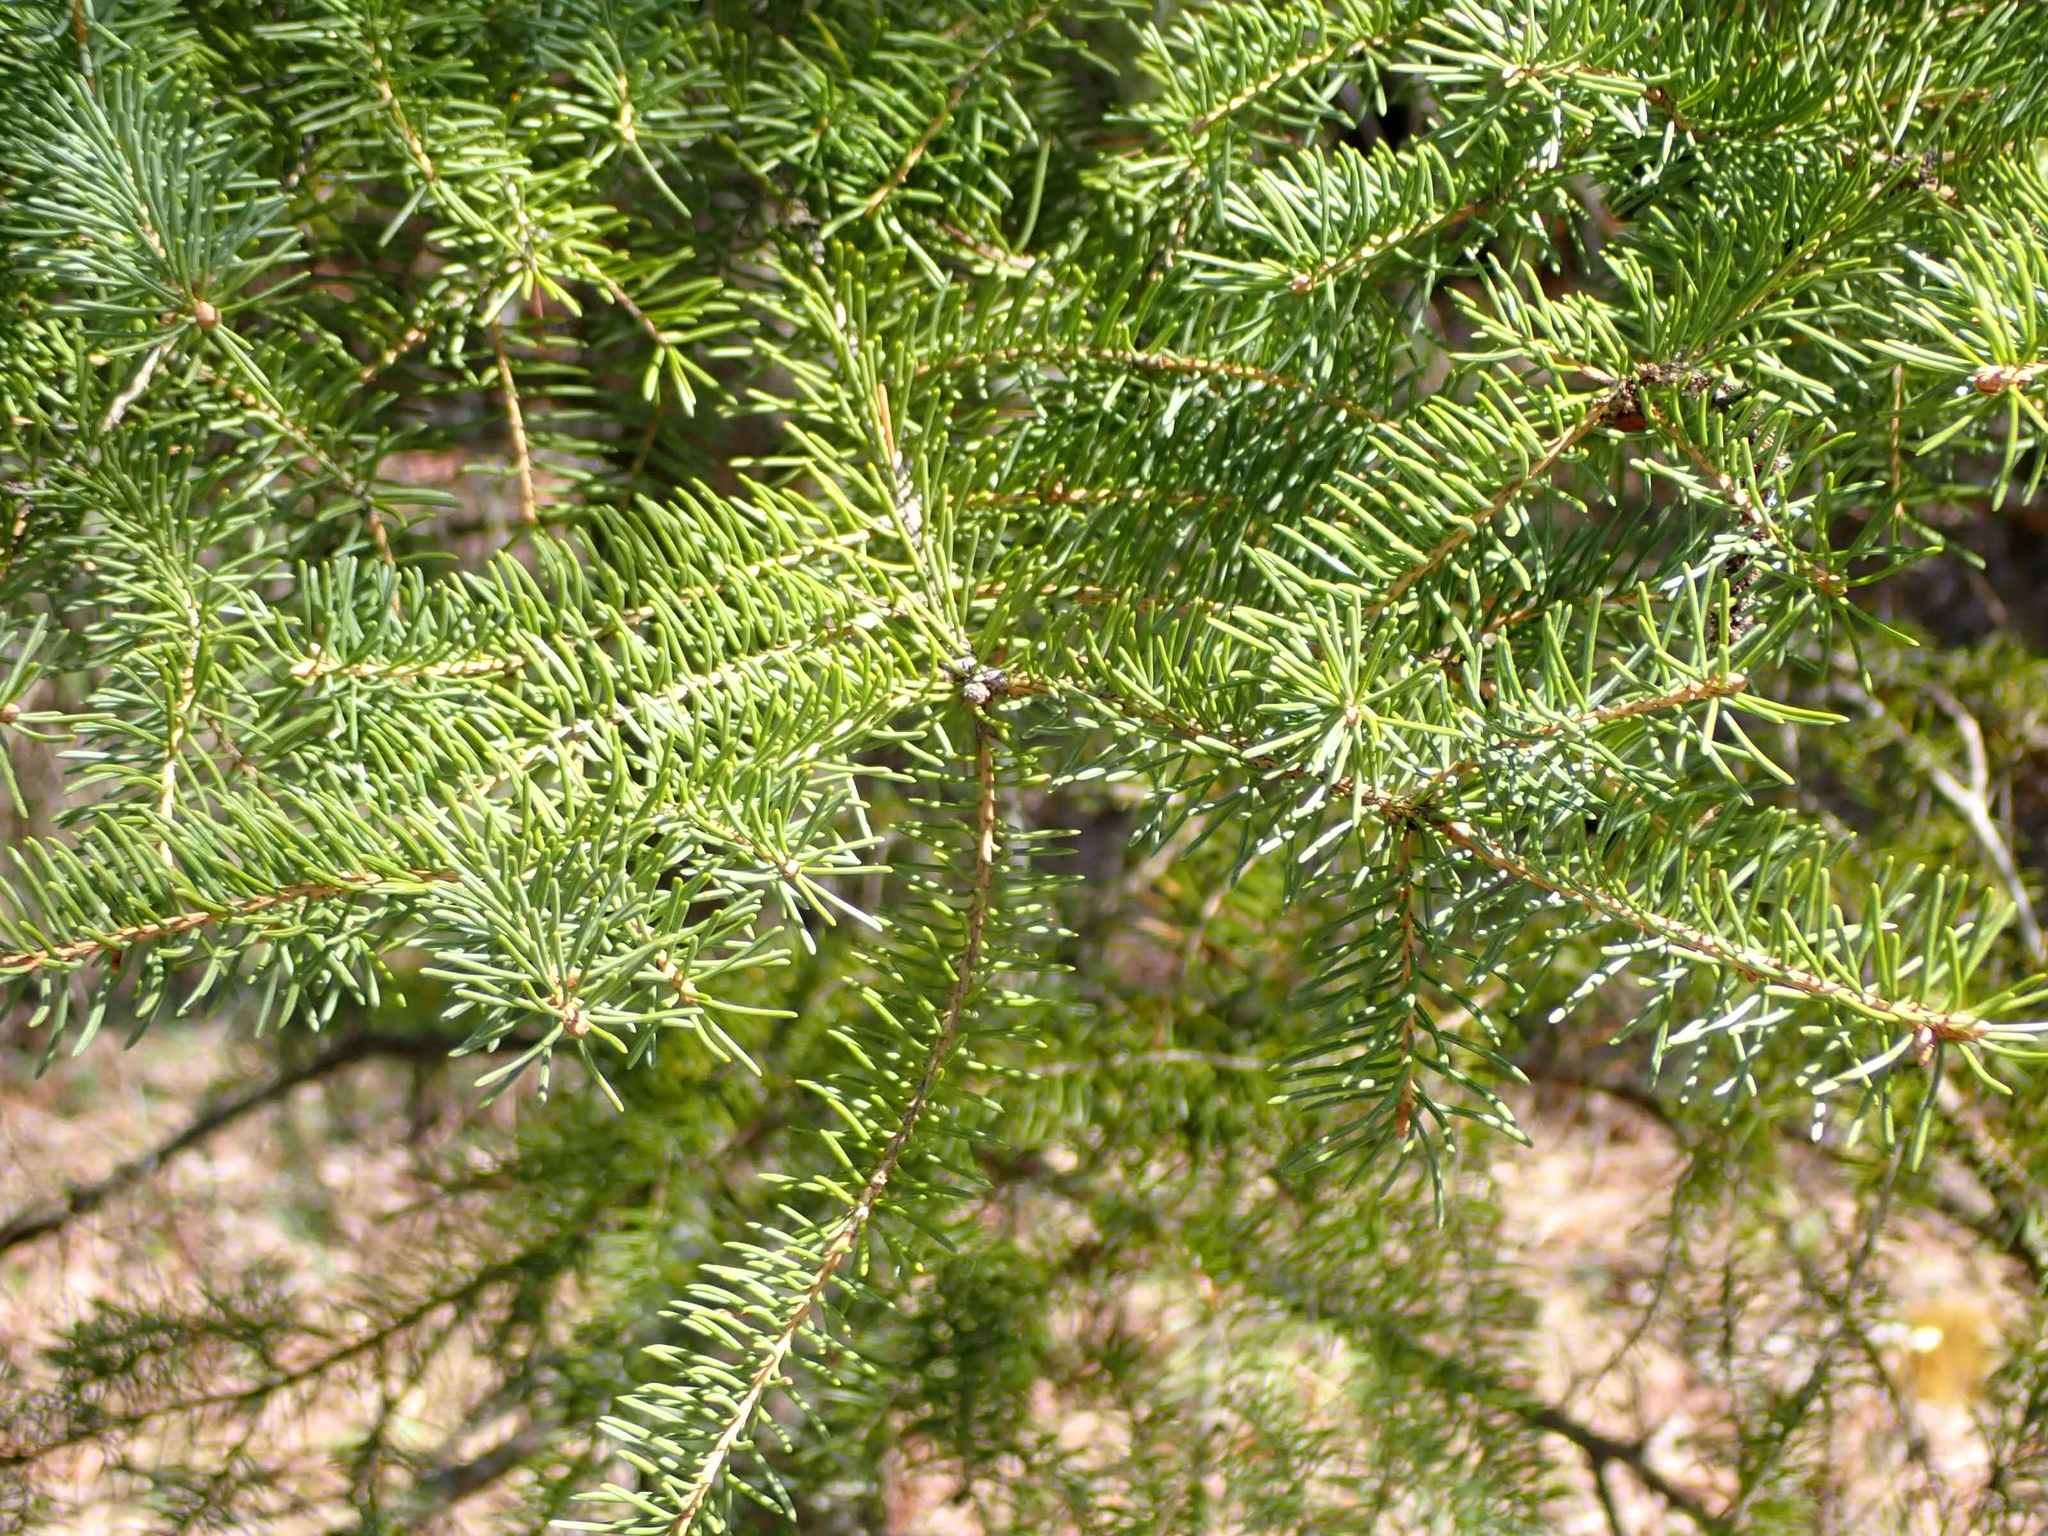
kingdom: Plantae
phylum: Tracheophyta
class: Pinopsida
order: Pinales
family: Pinaceae
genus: Picea
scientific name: Picea glauca
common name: White spruce
